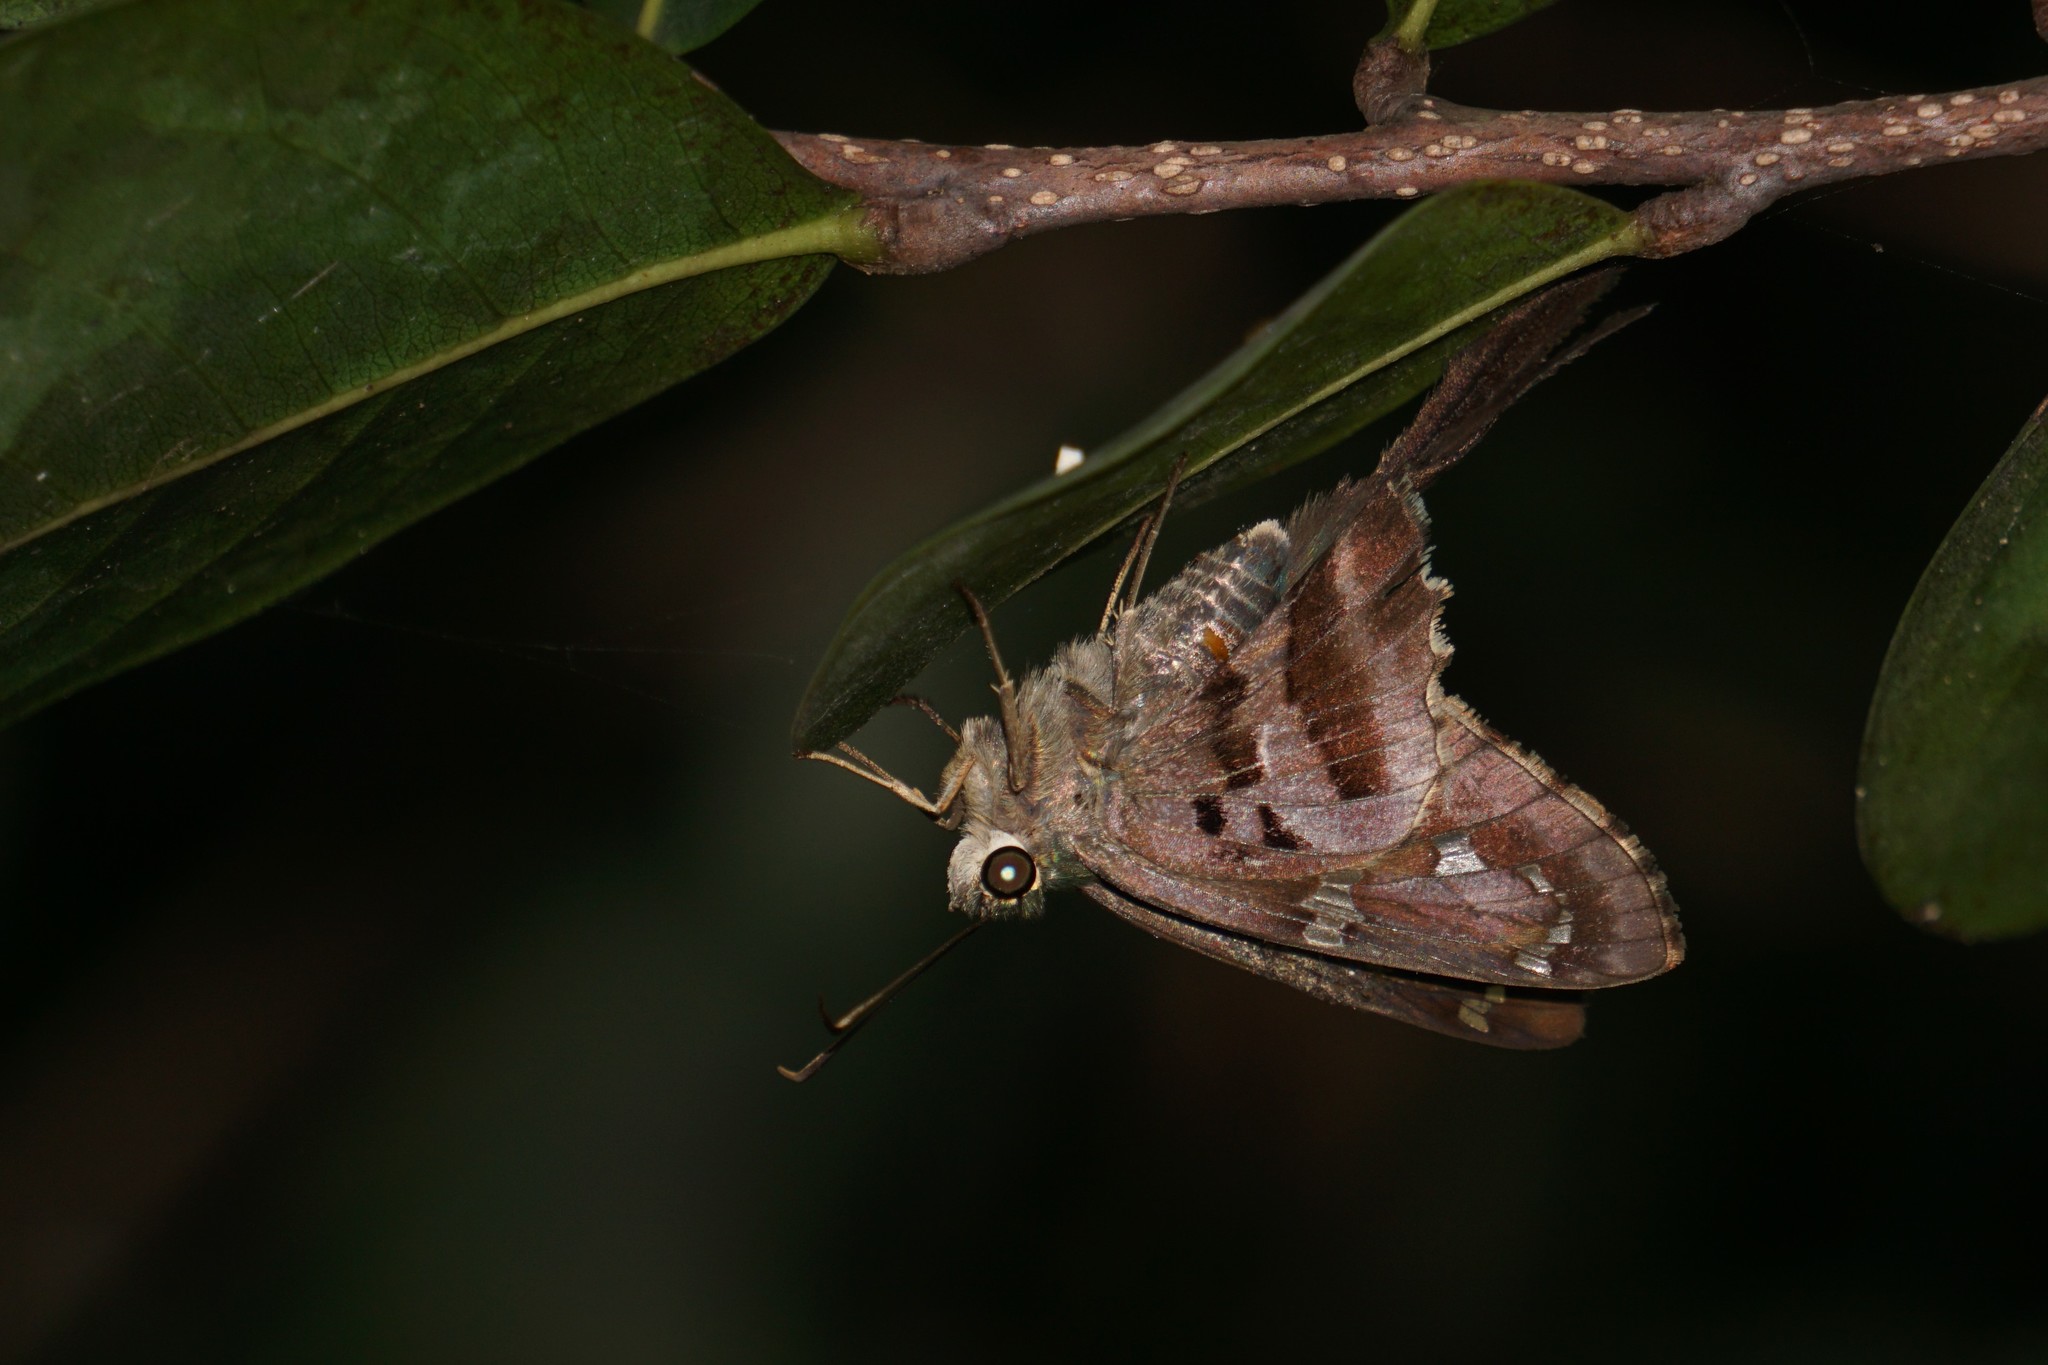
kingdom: Animalia
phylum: Arthropoda
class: Insecta
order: Lepidoptera
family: Hesperiidae
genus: Urbanus
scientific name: Urbanus proteus
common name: Long-tailed skipper
